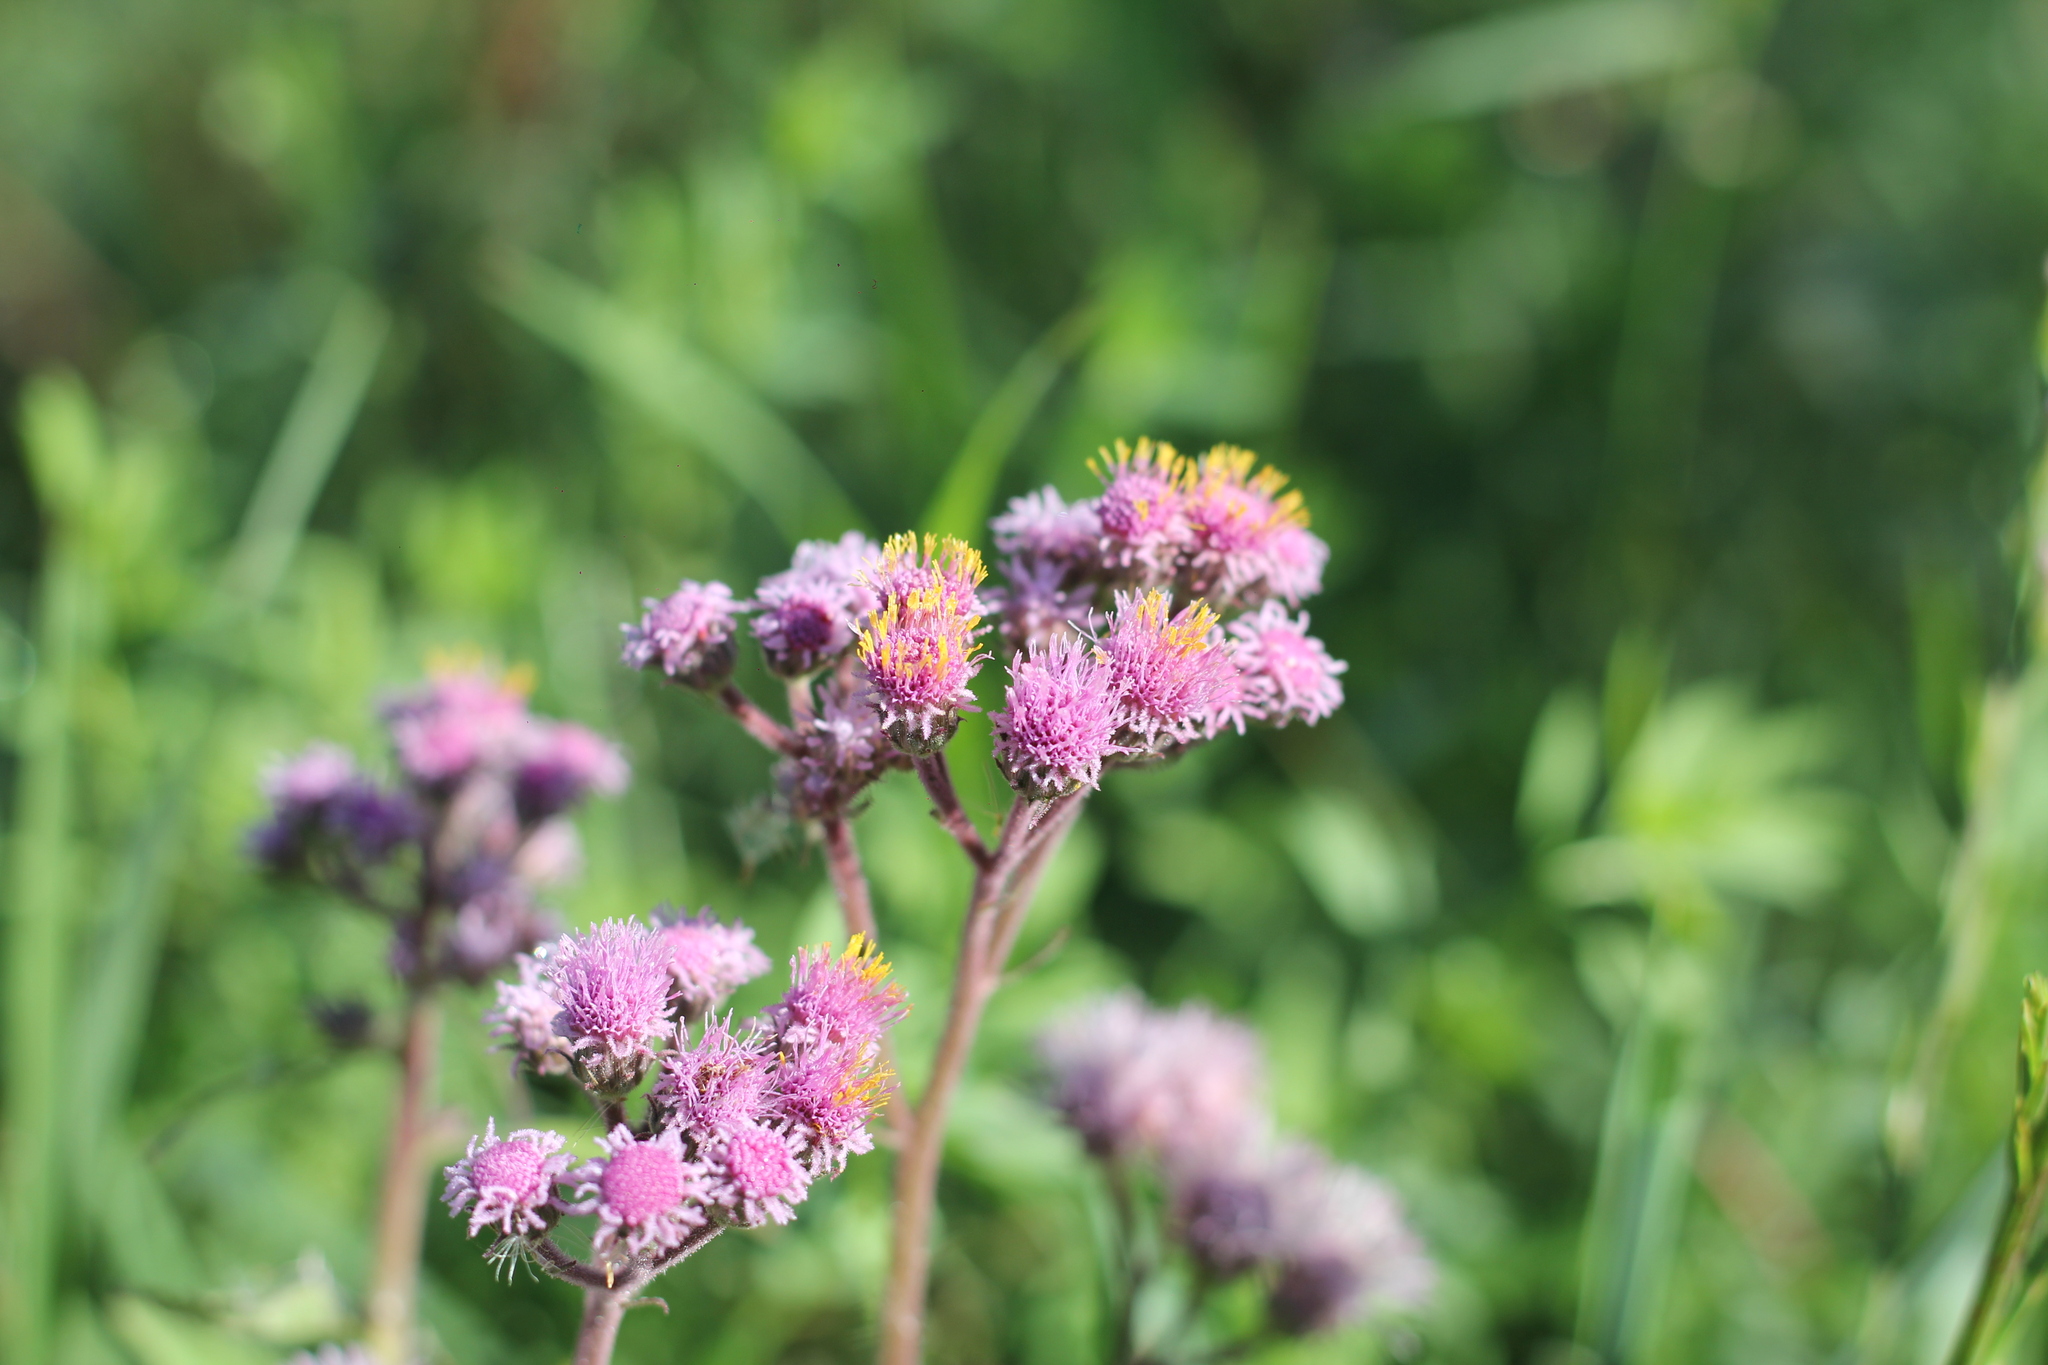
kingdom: Plantae
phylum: Tracheophyta
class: Magnoliopsida
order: Asterales
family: Asteraceae
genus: Urolepis
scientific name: Urolepis hecatantha
